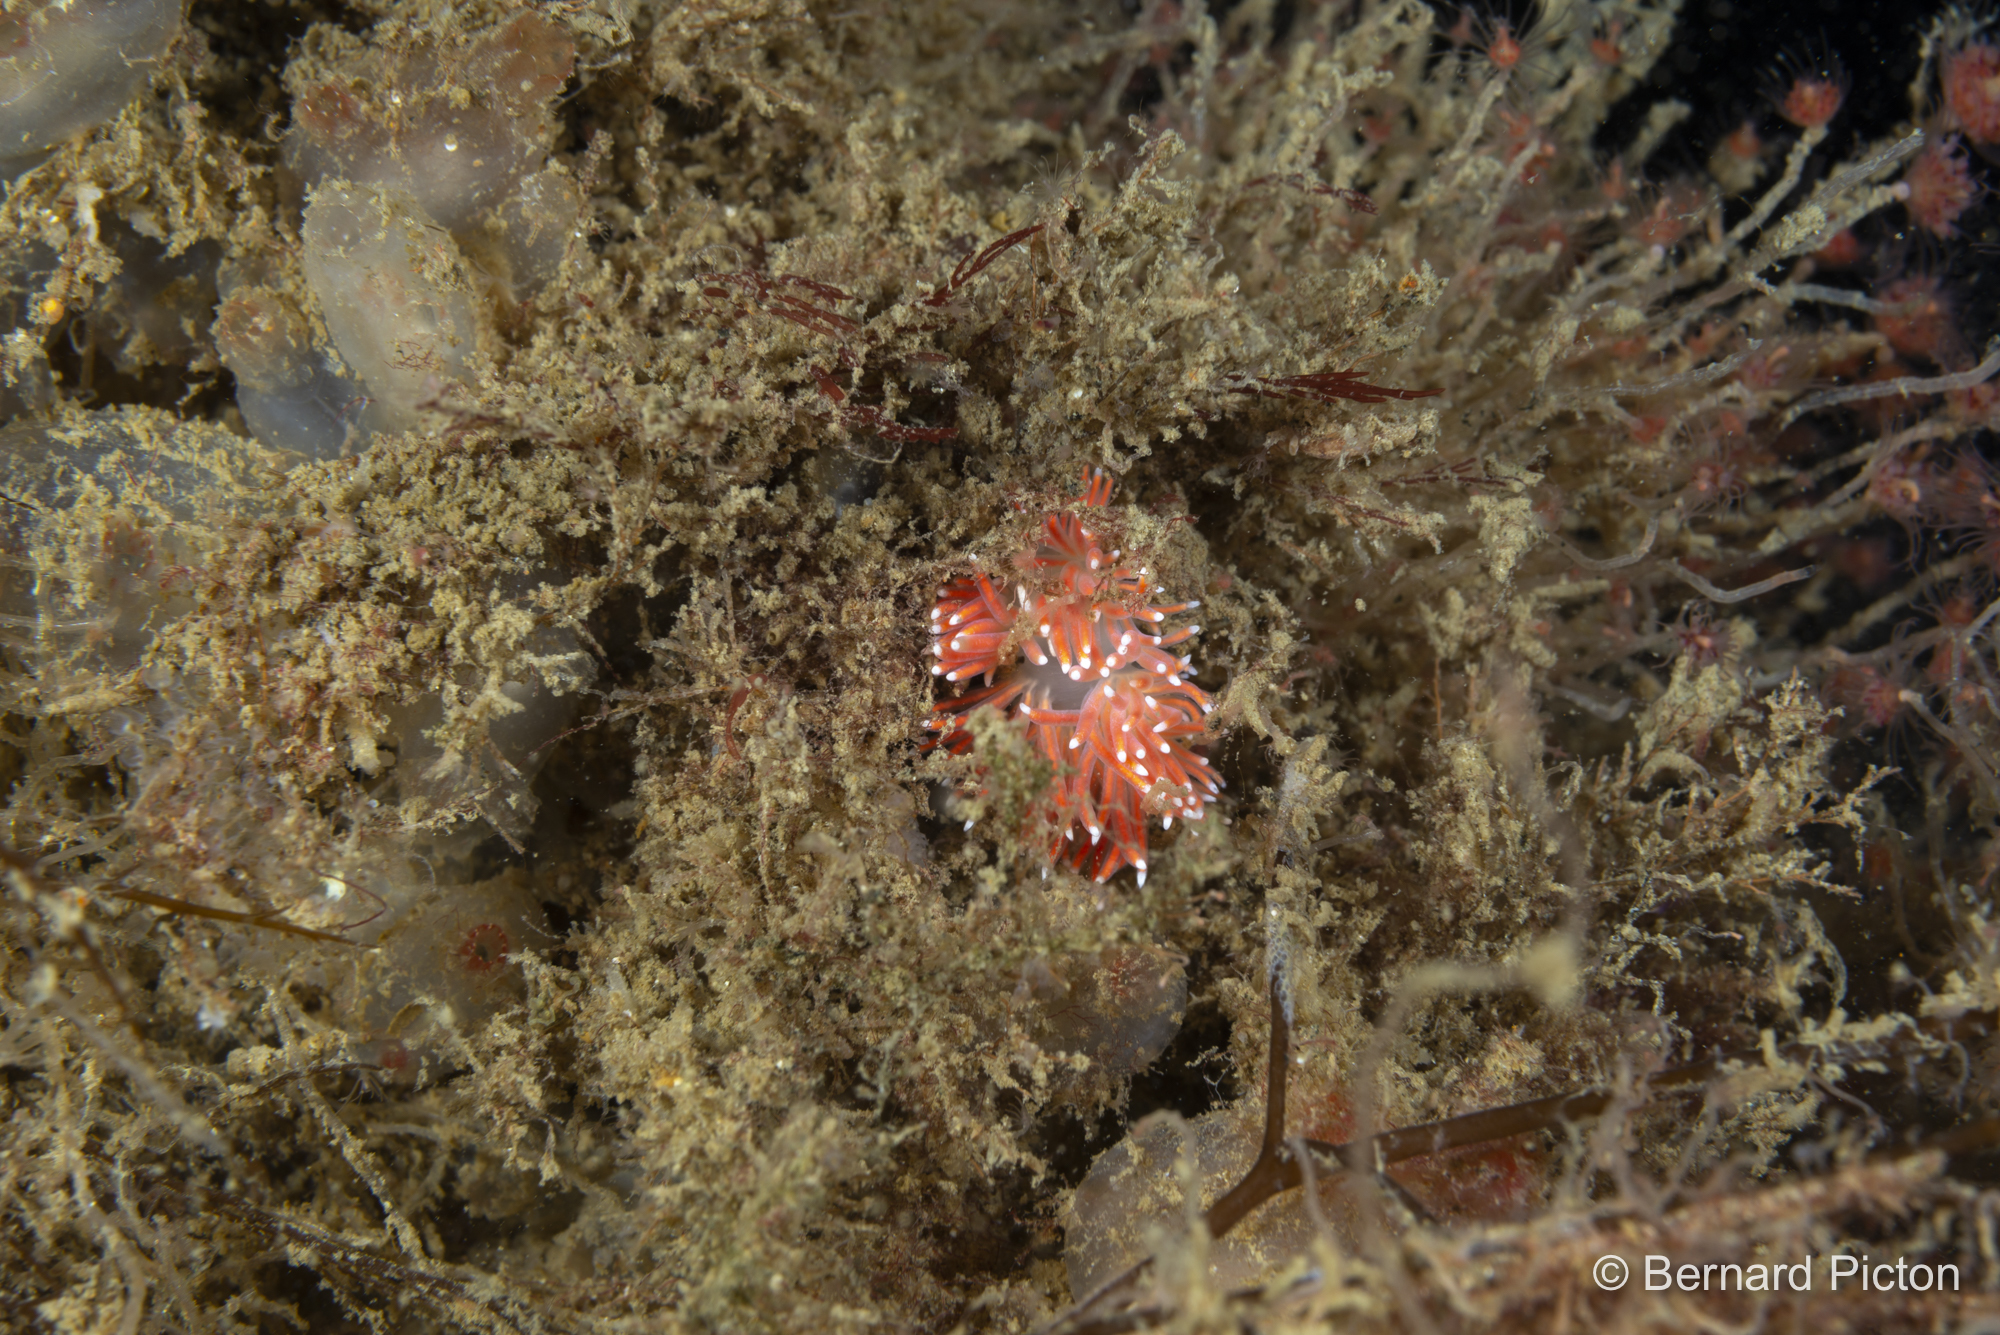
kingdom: Animalia
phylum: Mollusca
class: Gastropoda
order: Nudibranchia
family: Flabellinidae
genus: Carronella
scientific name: Carronella pellucida
